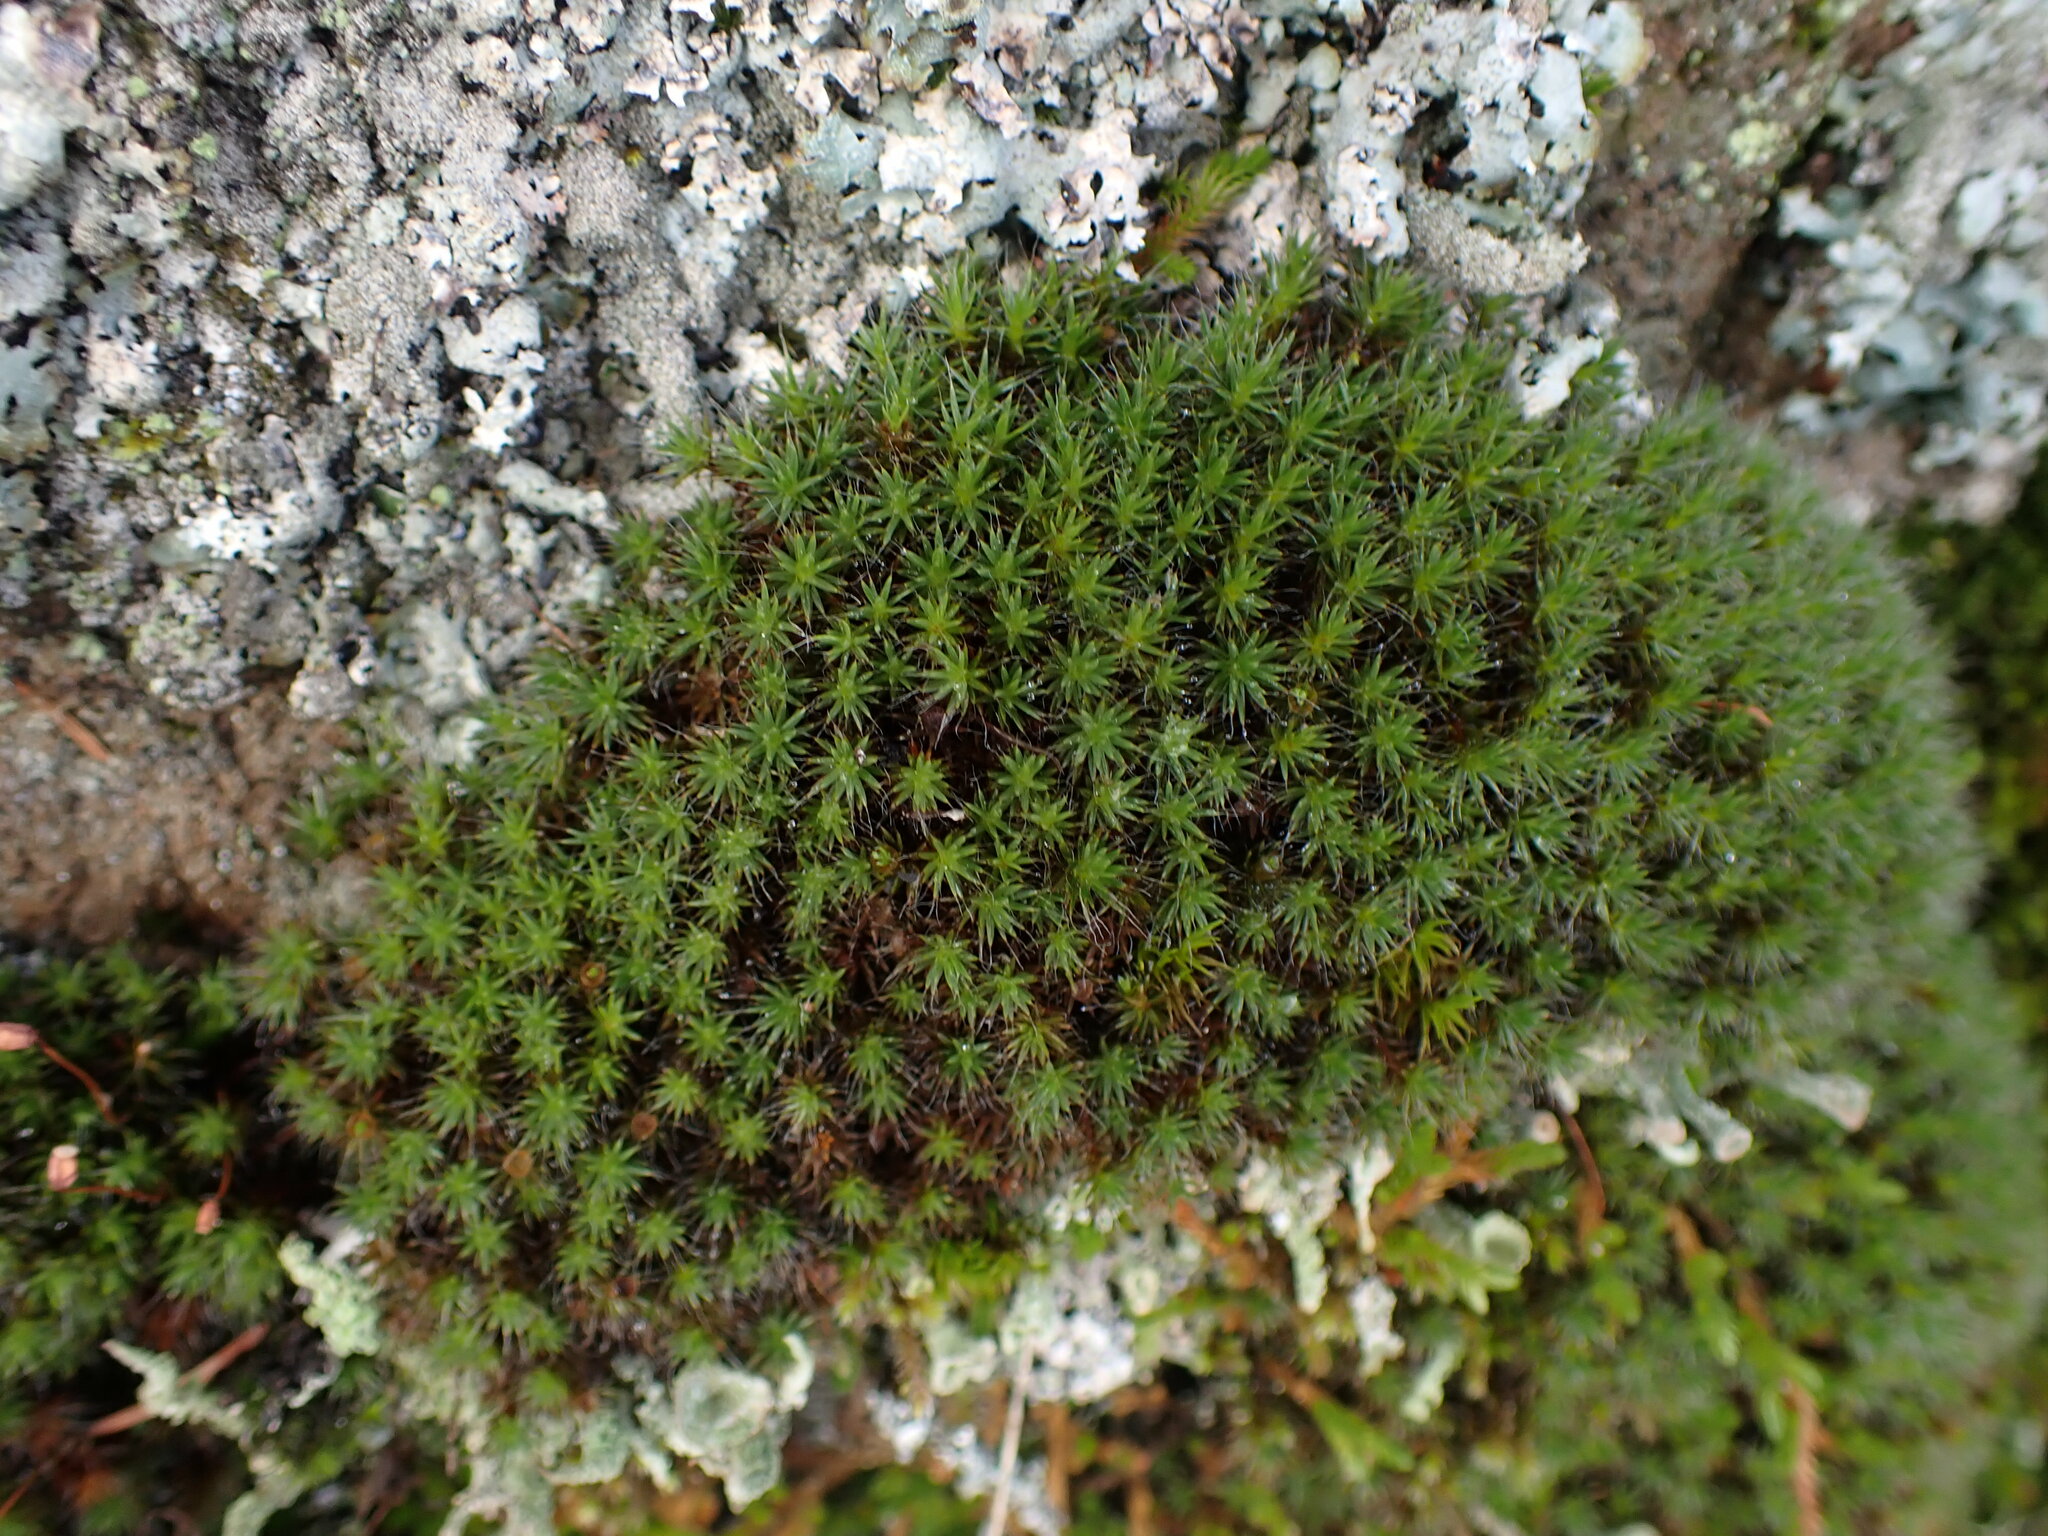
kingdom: Plantae
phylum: Bryophyta
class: Polytrichopsida
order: Polytrichales
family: Polytrichaceae
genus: Polytrichum
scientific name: Polytrichum piliferum
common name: Bristly haircap
